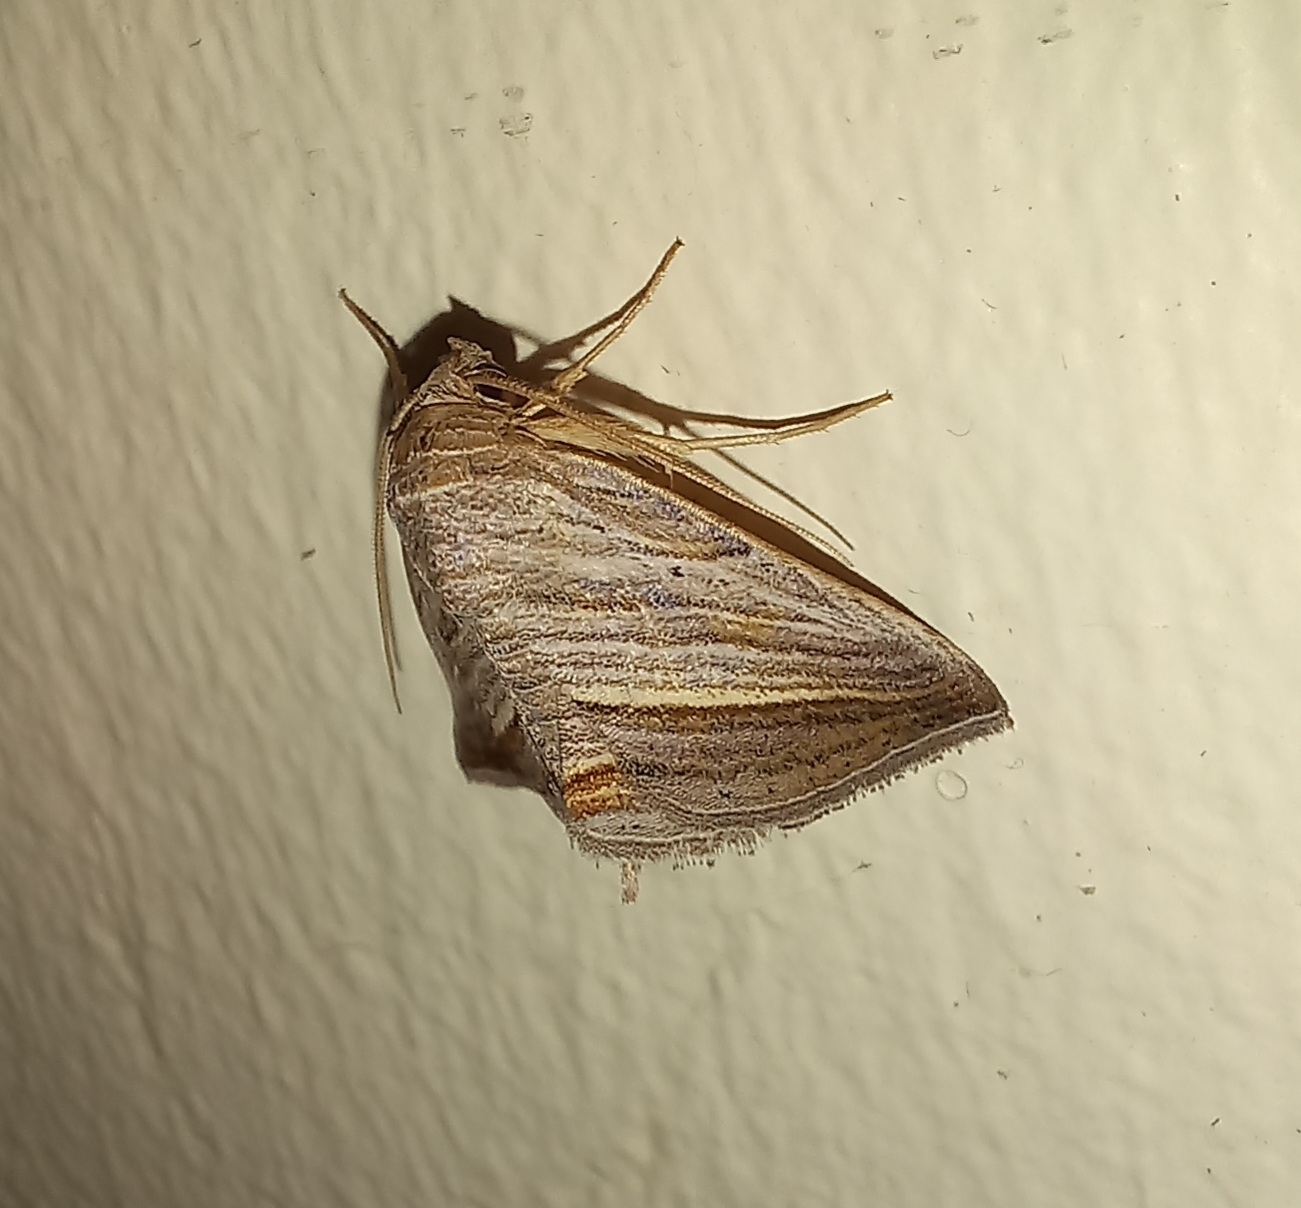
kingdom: Animalia
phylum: Arthropoda
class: Insecta
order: Lepidoptera
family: Noctuidae
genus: Honeyania
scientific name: Honeyania ragusana
